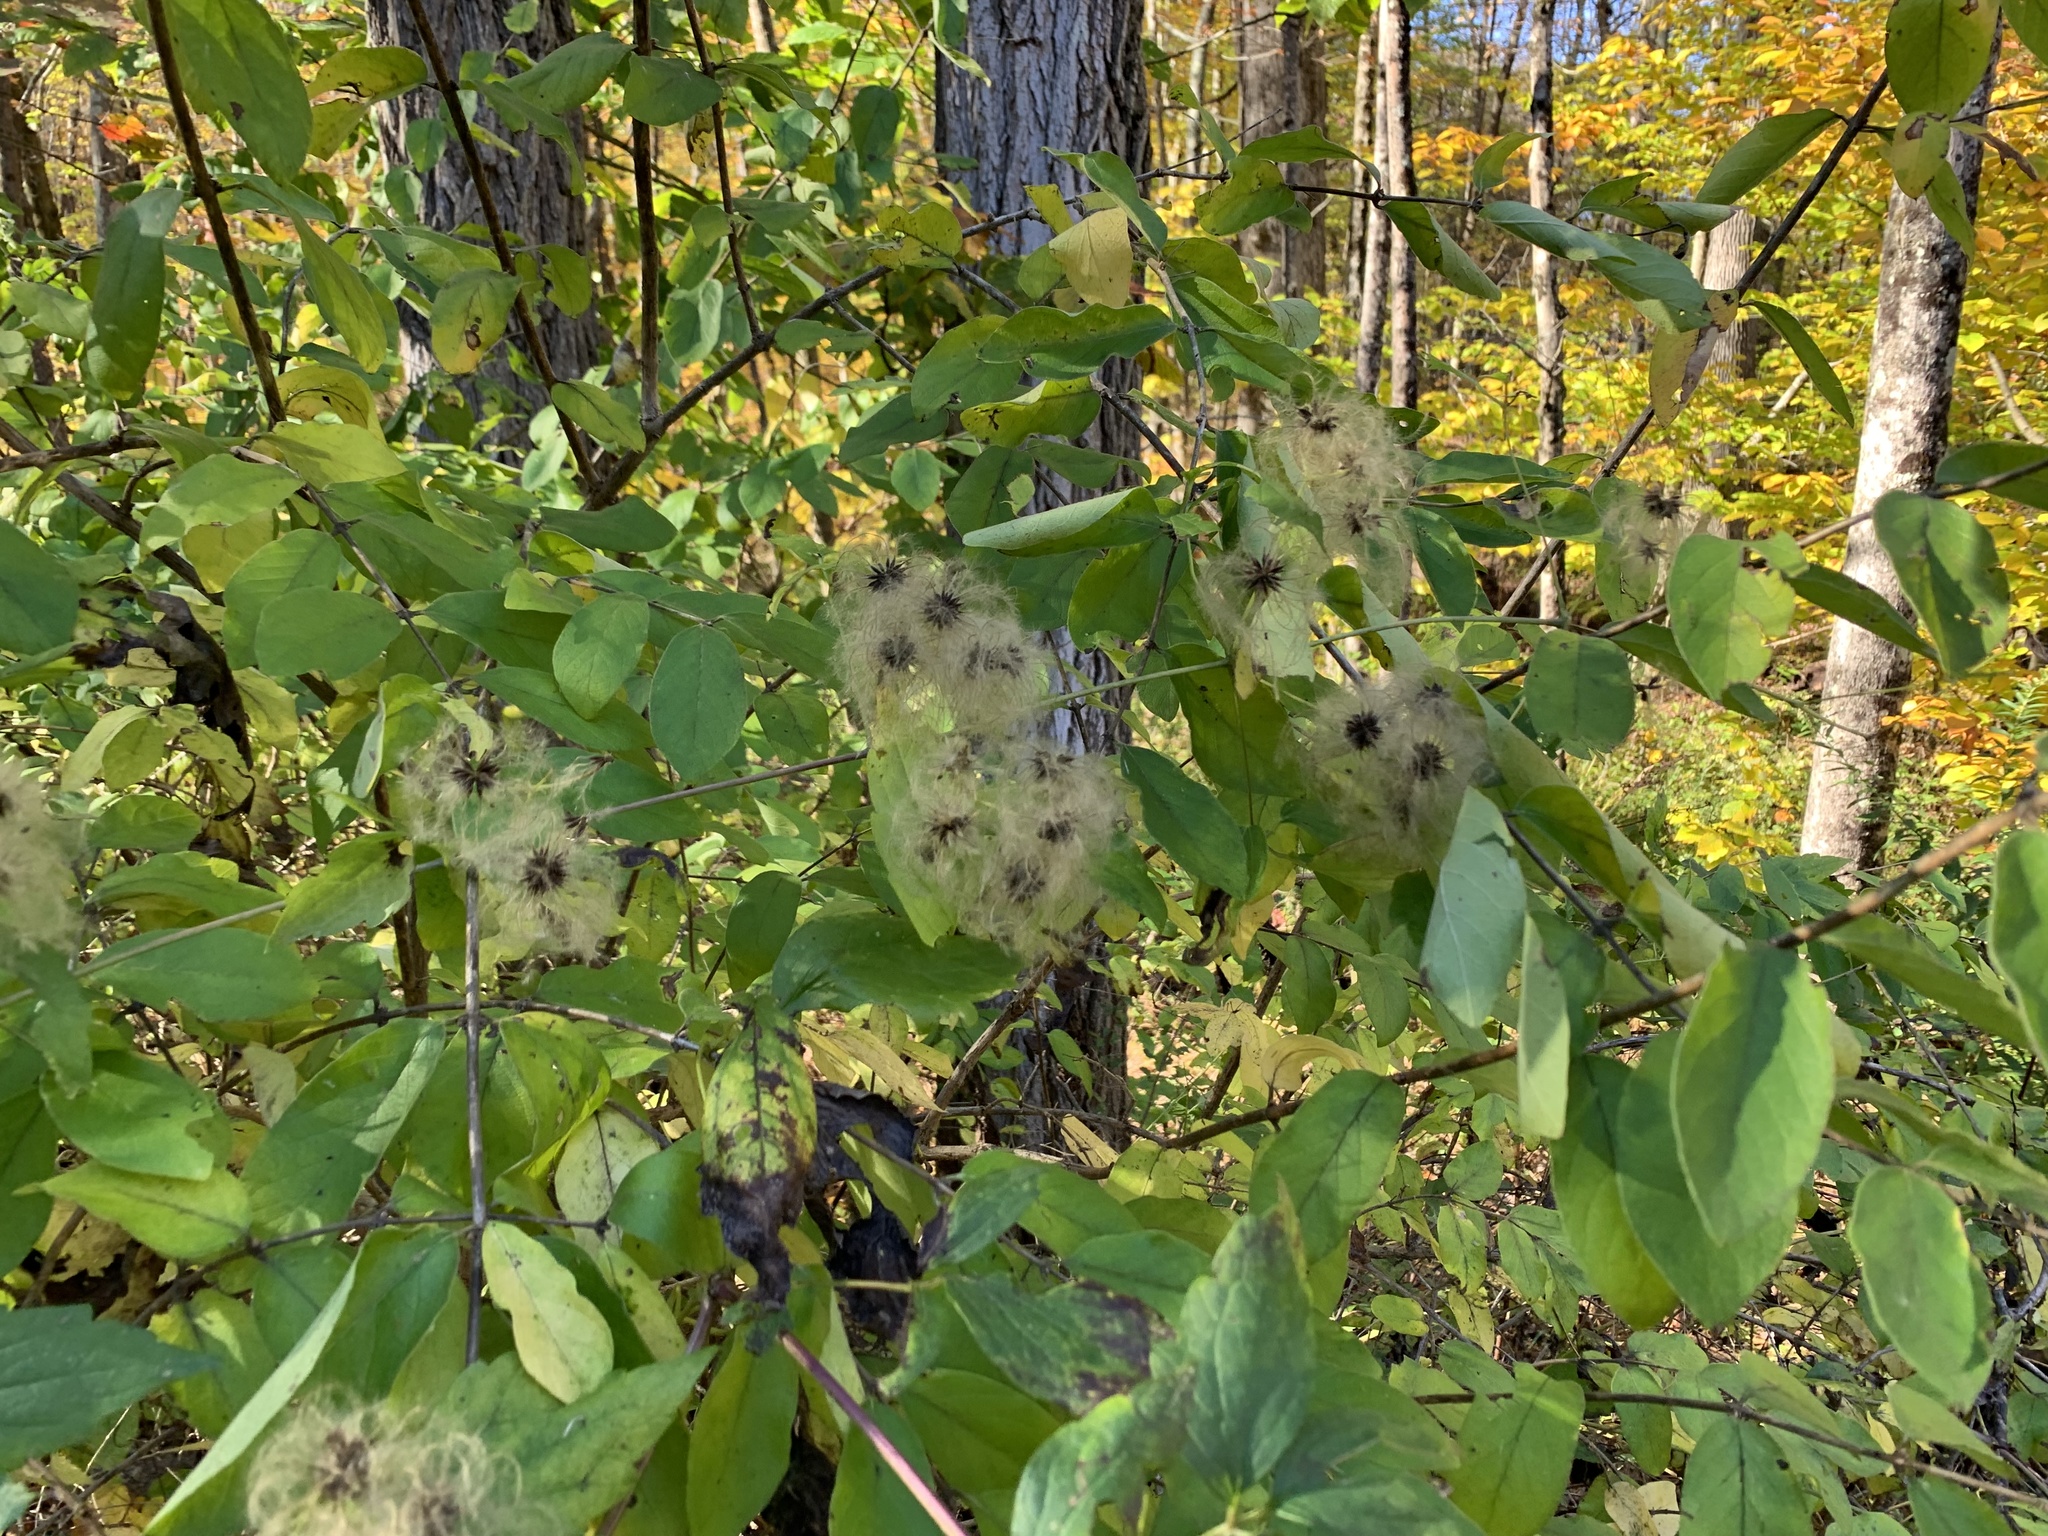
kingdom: Plantae
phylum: Tracheophyta
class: Magnoliopsida
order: Ranunculales
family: Ranunculaceae
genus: Clematis
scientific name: Clematis virginiana
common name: Virgin's-bower
